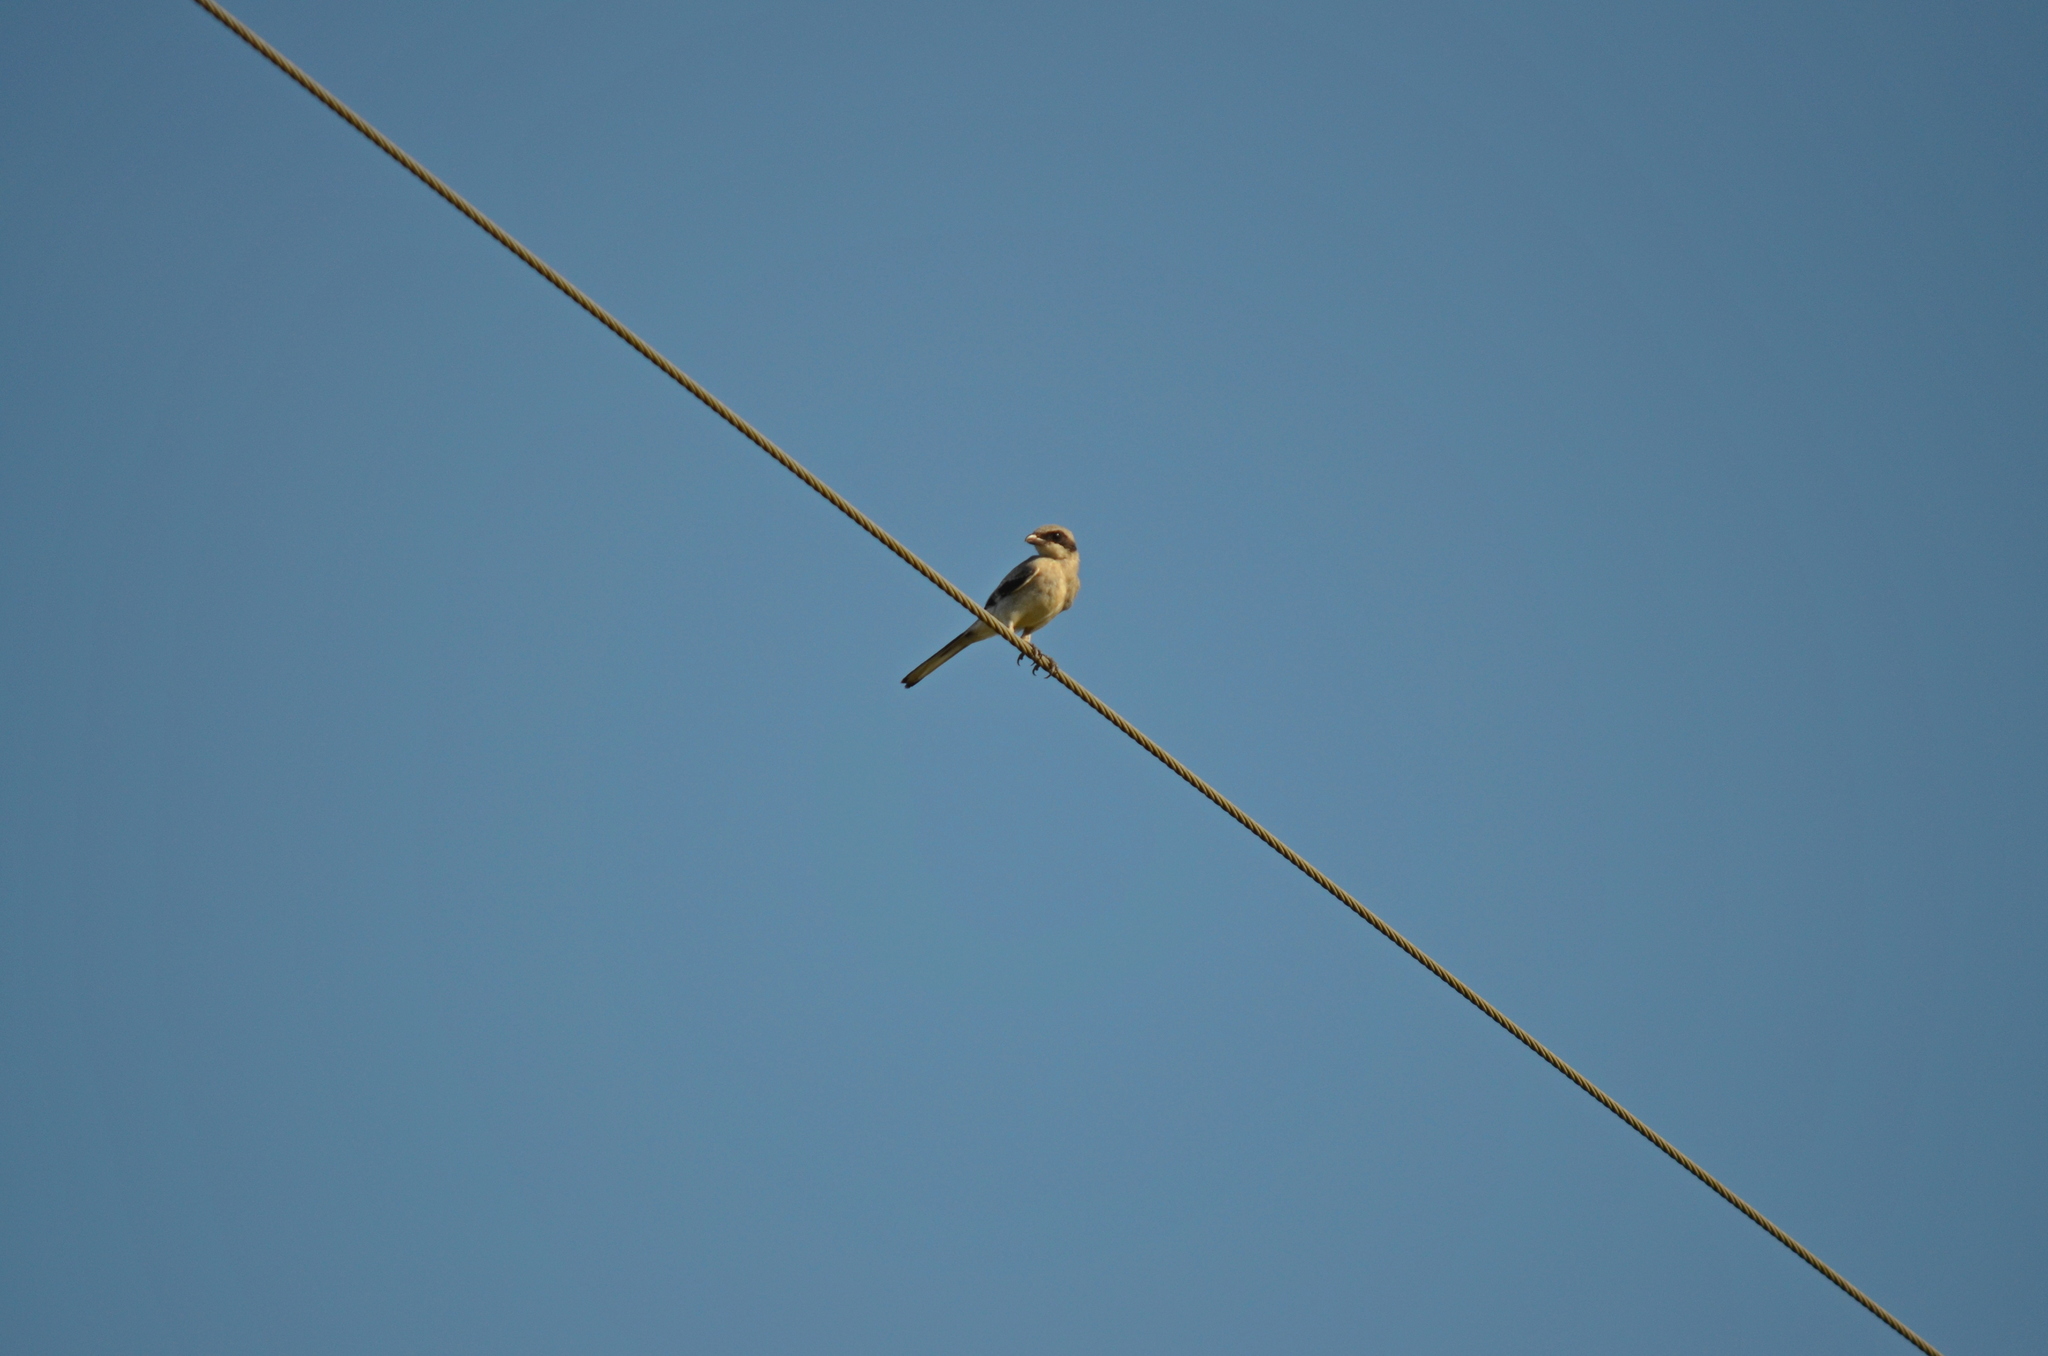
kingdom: Animalia
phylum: Chordata
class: Aves
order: Passeriformes
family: Laniidae
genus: Lanius
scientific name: Lanius ludovicianus
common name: Loggerhead shrike
